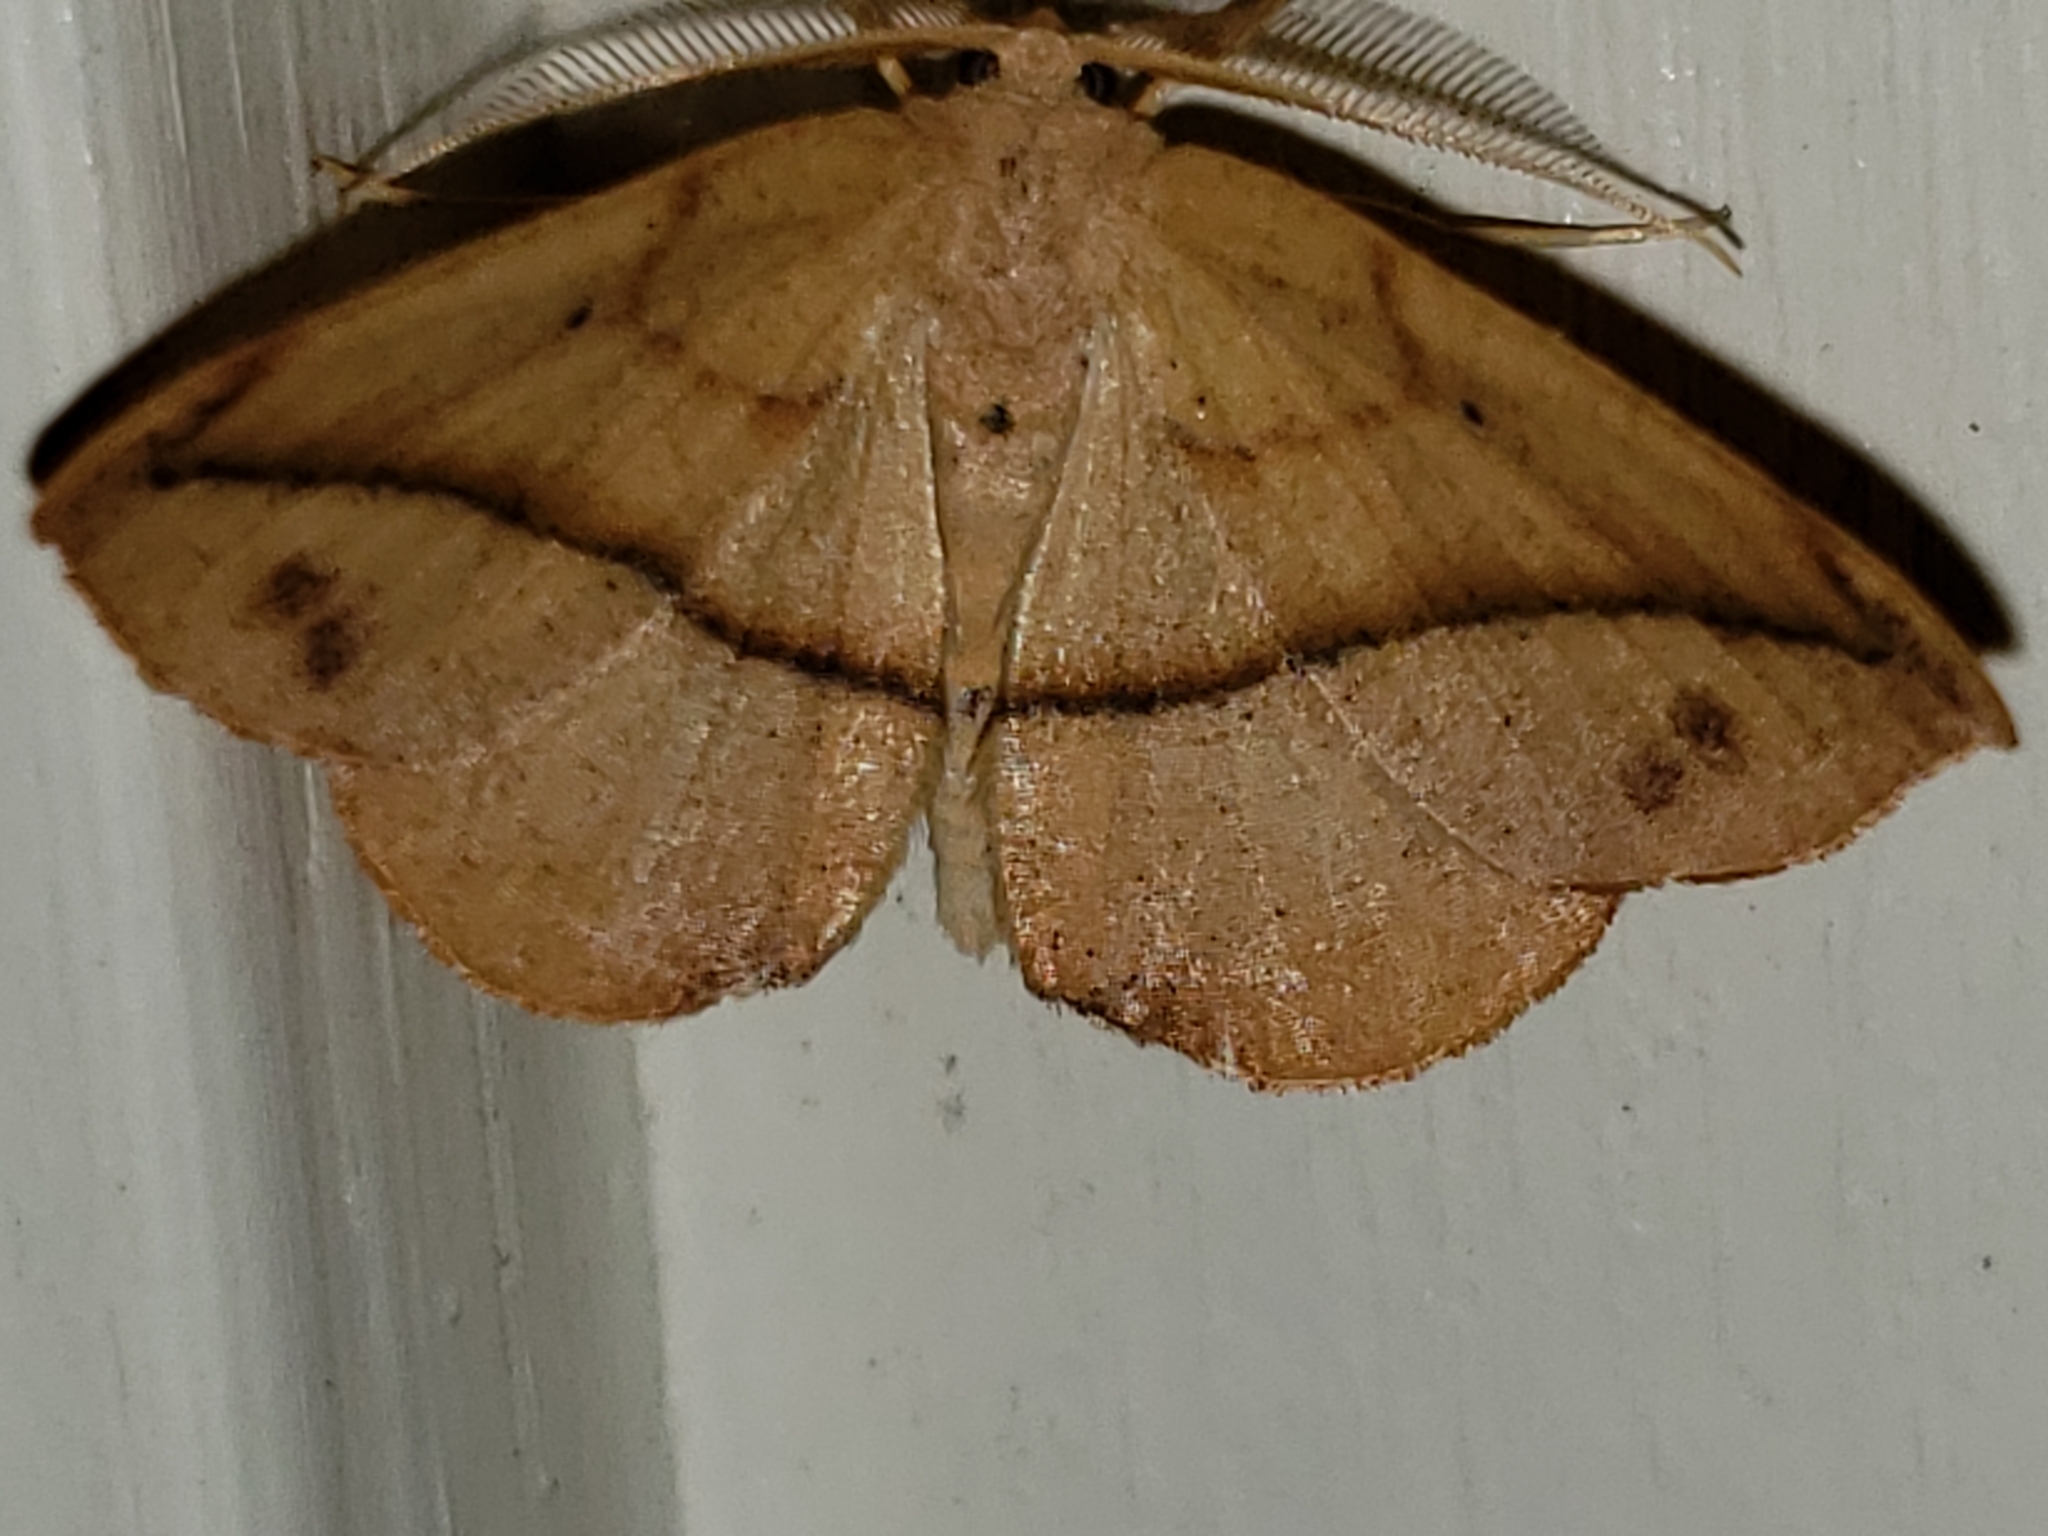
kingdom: Animalia
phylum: Arthropoda
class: Insecta
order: Lepidoptera
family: Geometridae
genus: Patalene
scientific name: Patalene olyzonaria
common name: Juniper geometer moth
